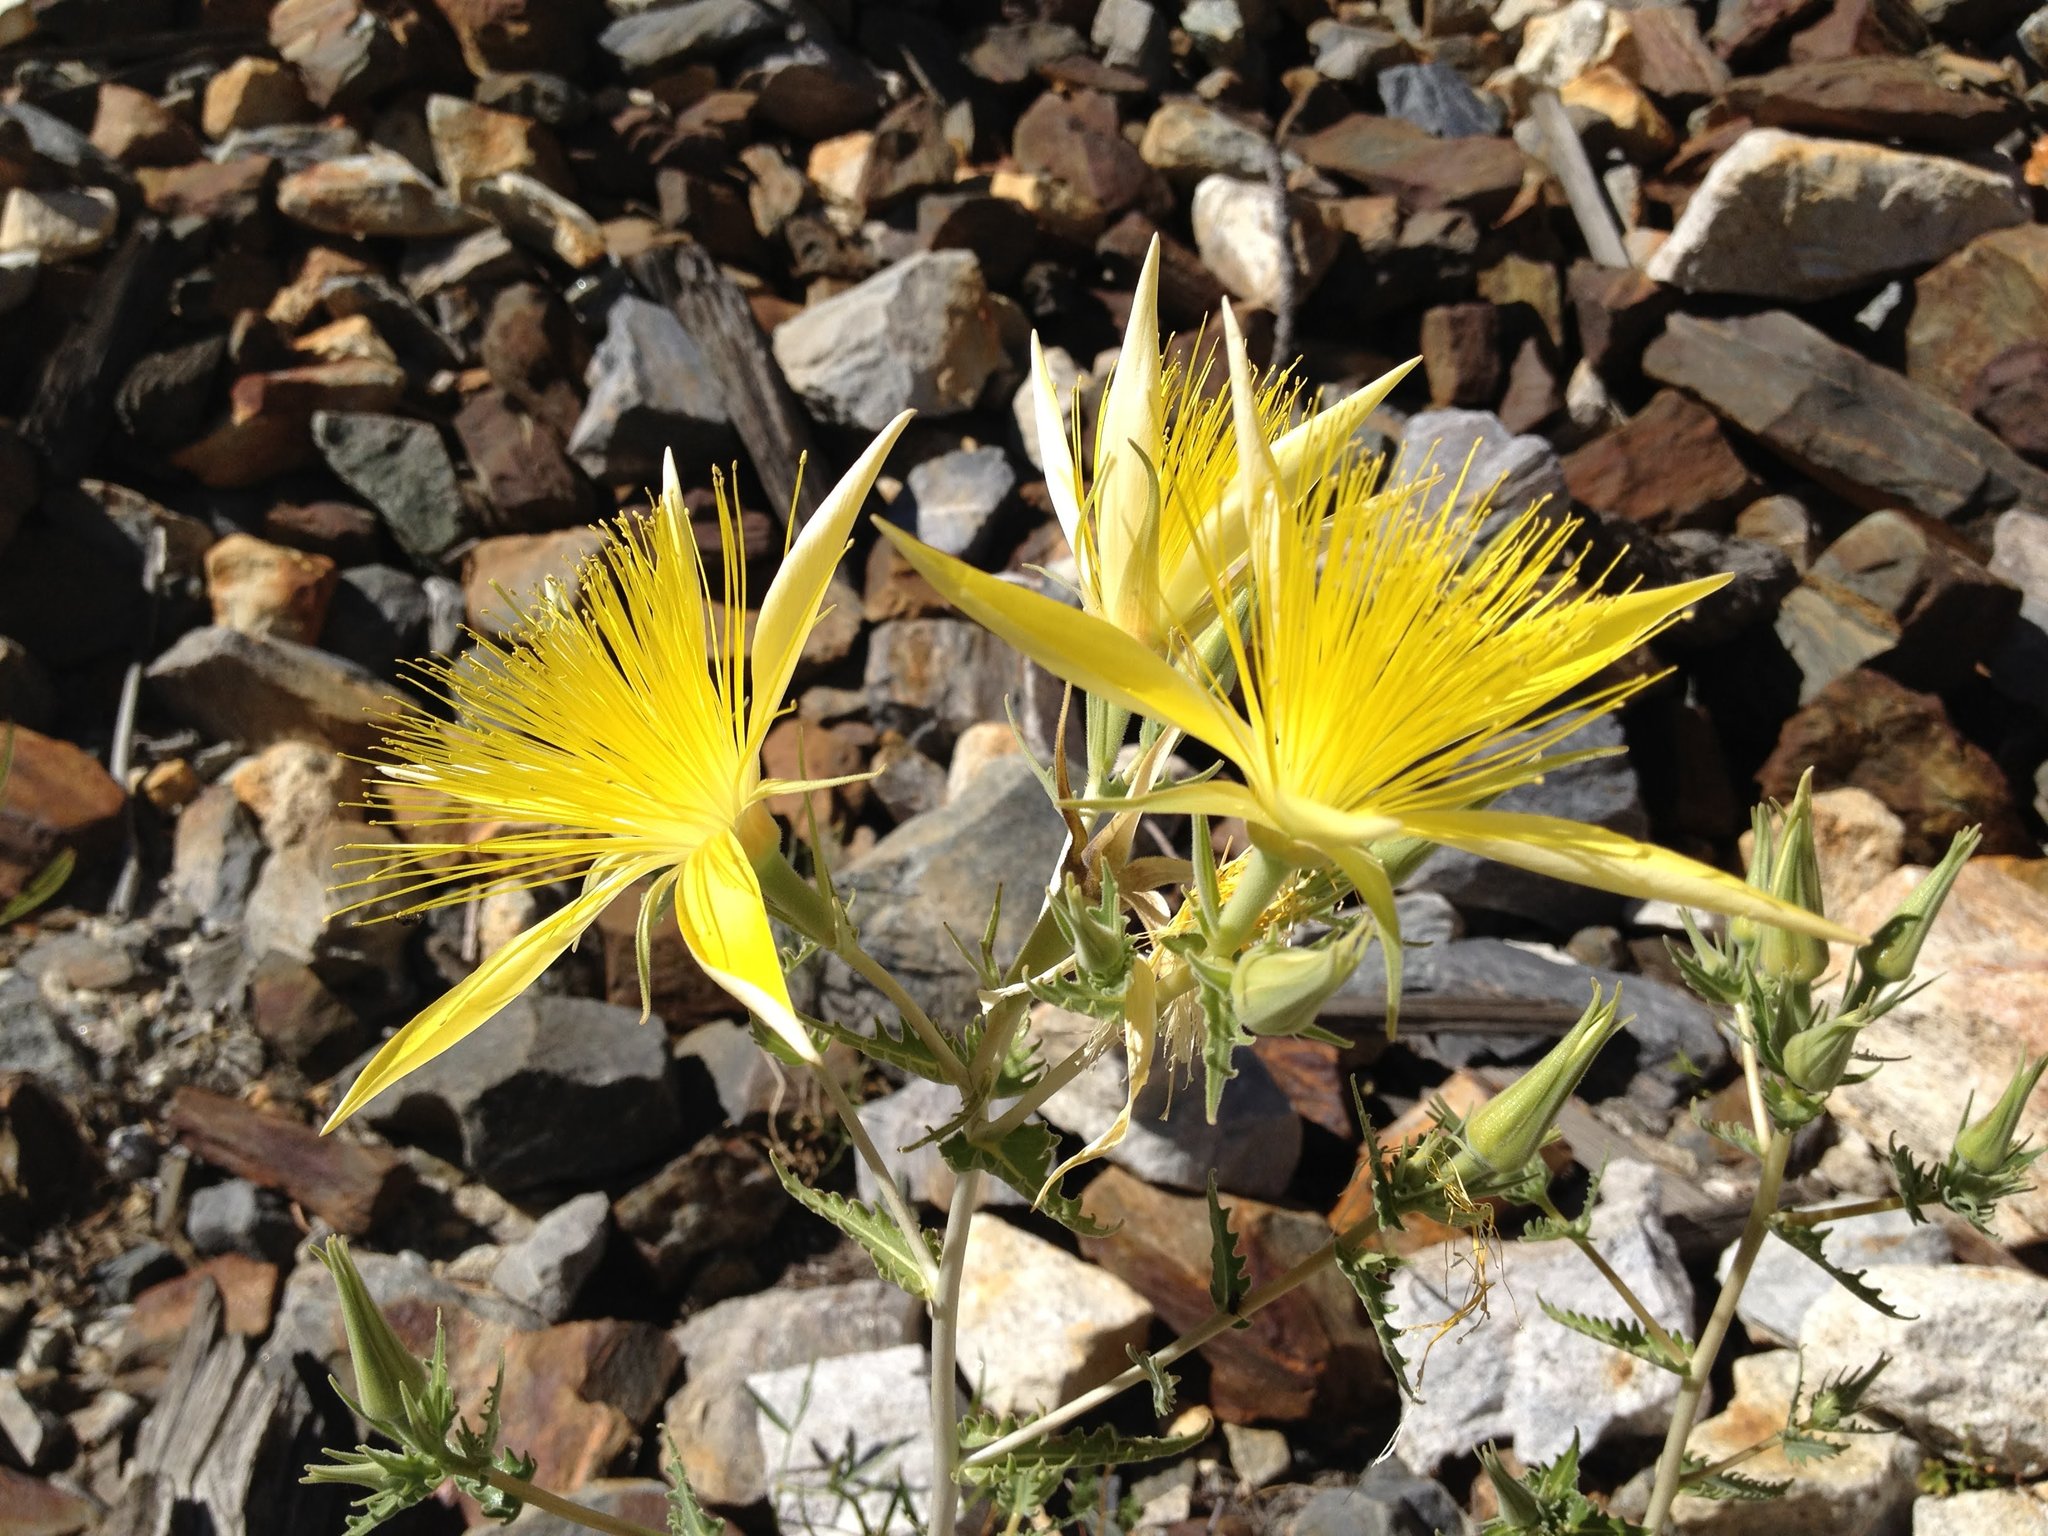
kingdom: Plantae
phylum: Tracheophyta
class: Magnoliopsida
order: Cornales
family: Loasaceae
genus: Mentzelia
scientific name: Mentzelia laevicaulis
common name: Smooth-stem blazingstar
